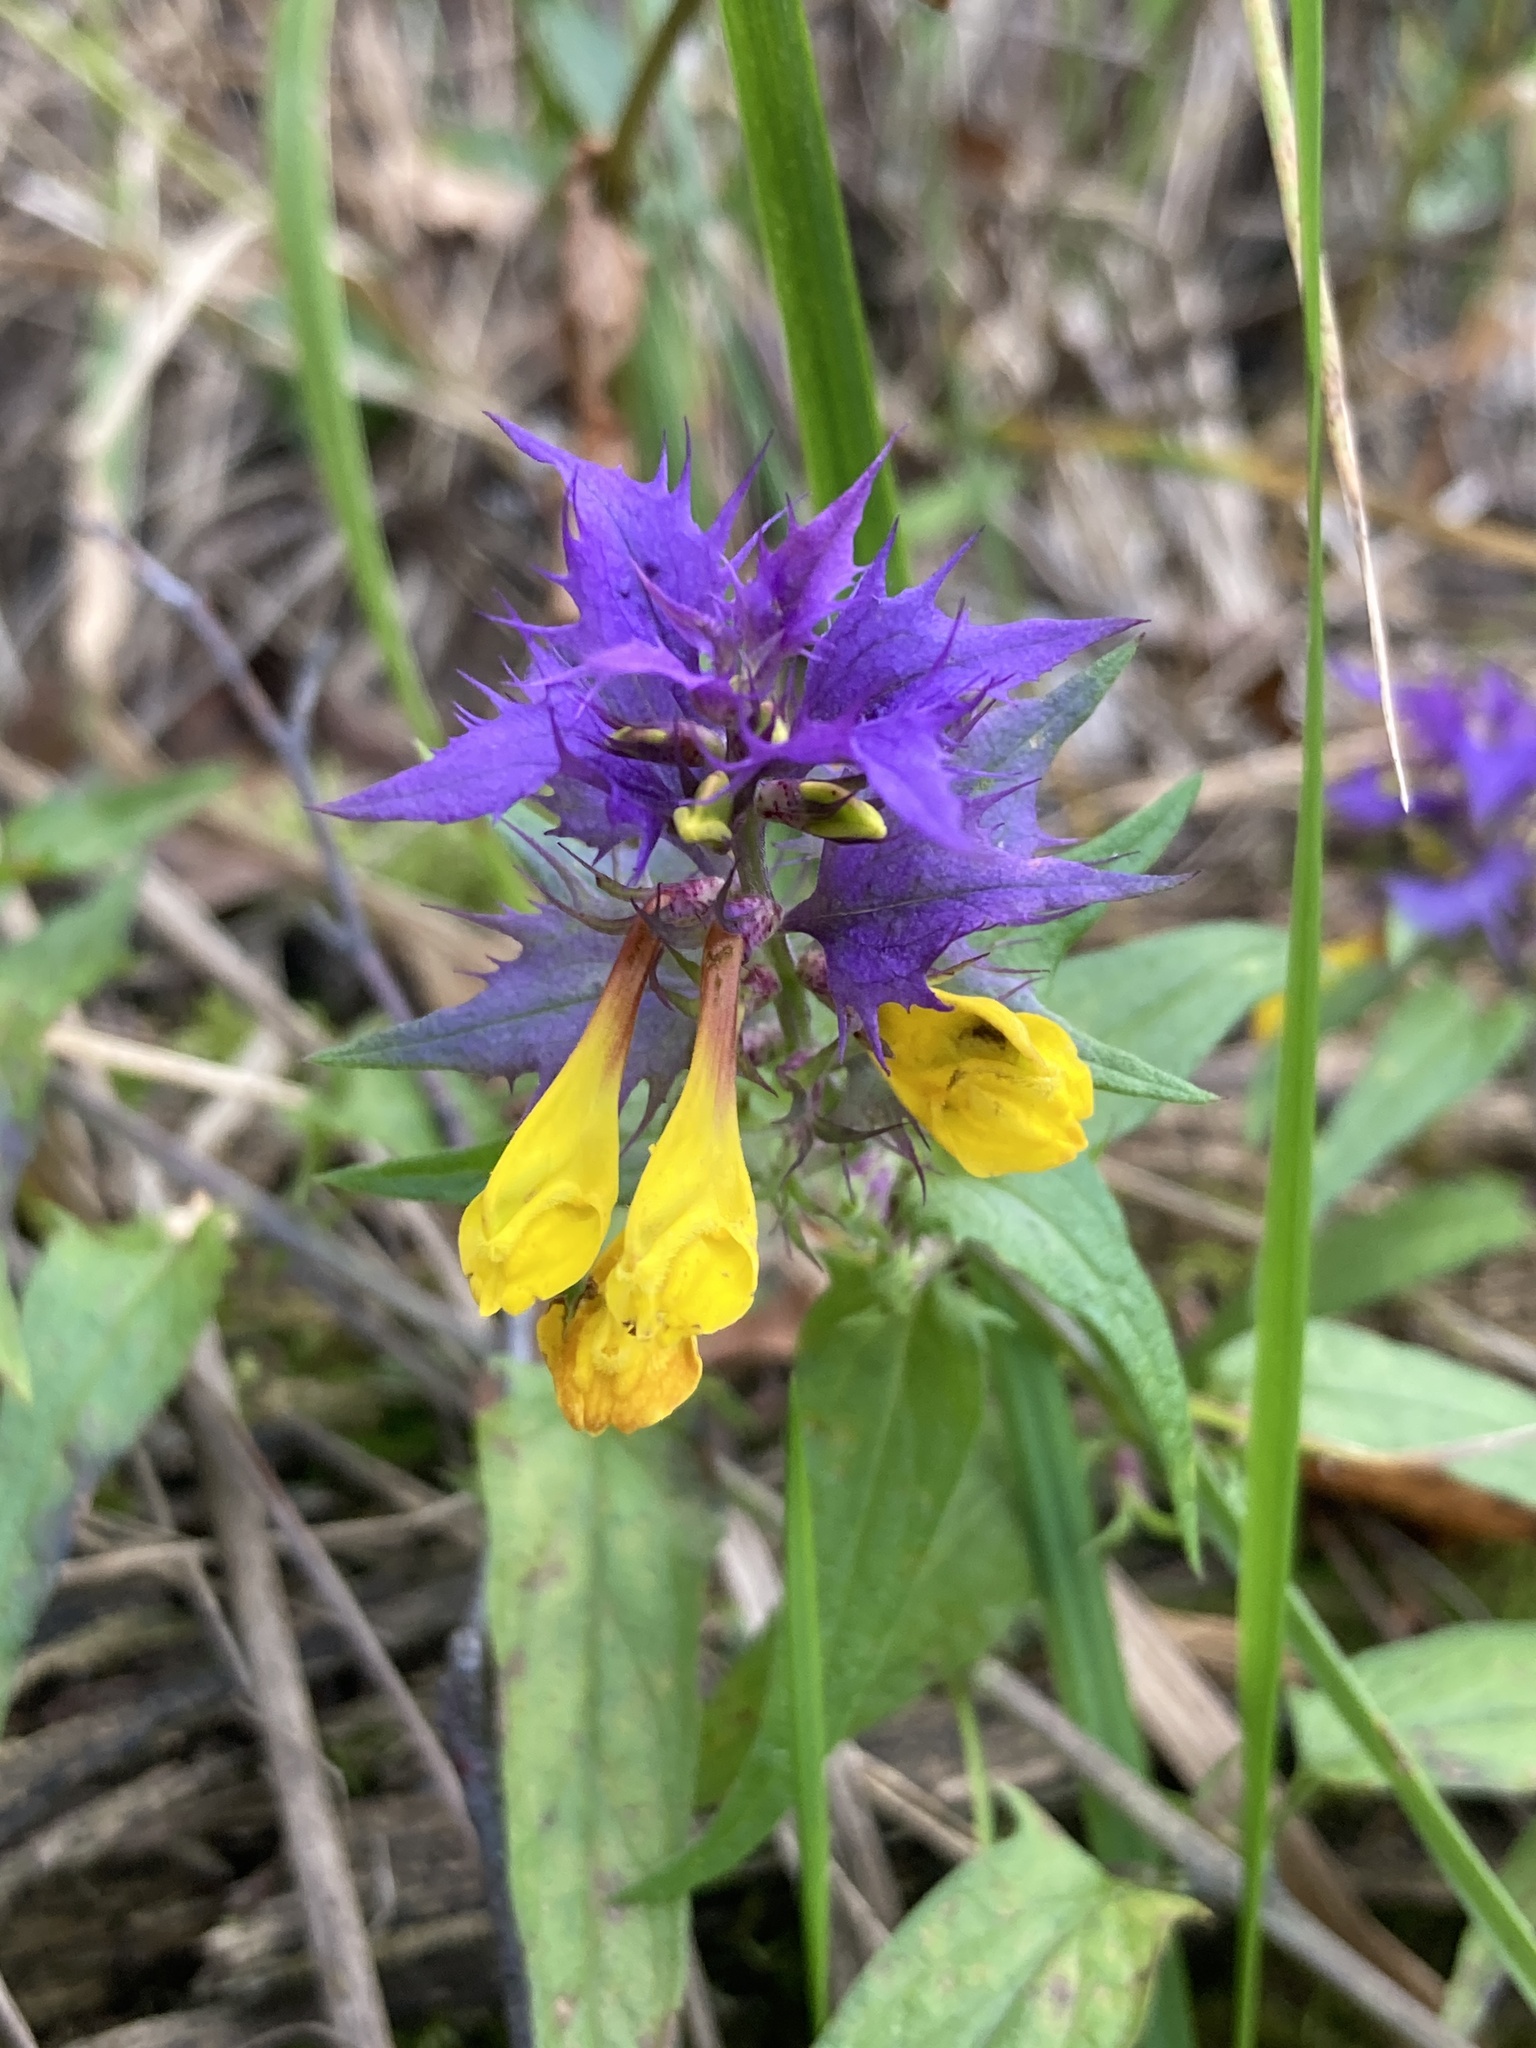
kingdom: Plantae
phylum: Tracheophyta
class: Magnoliopsida
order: Lamiales
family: Orobanchaceae
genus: Melampyrum
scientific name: Melampyrum nemorosum
